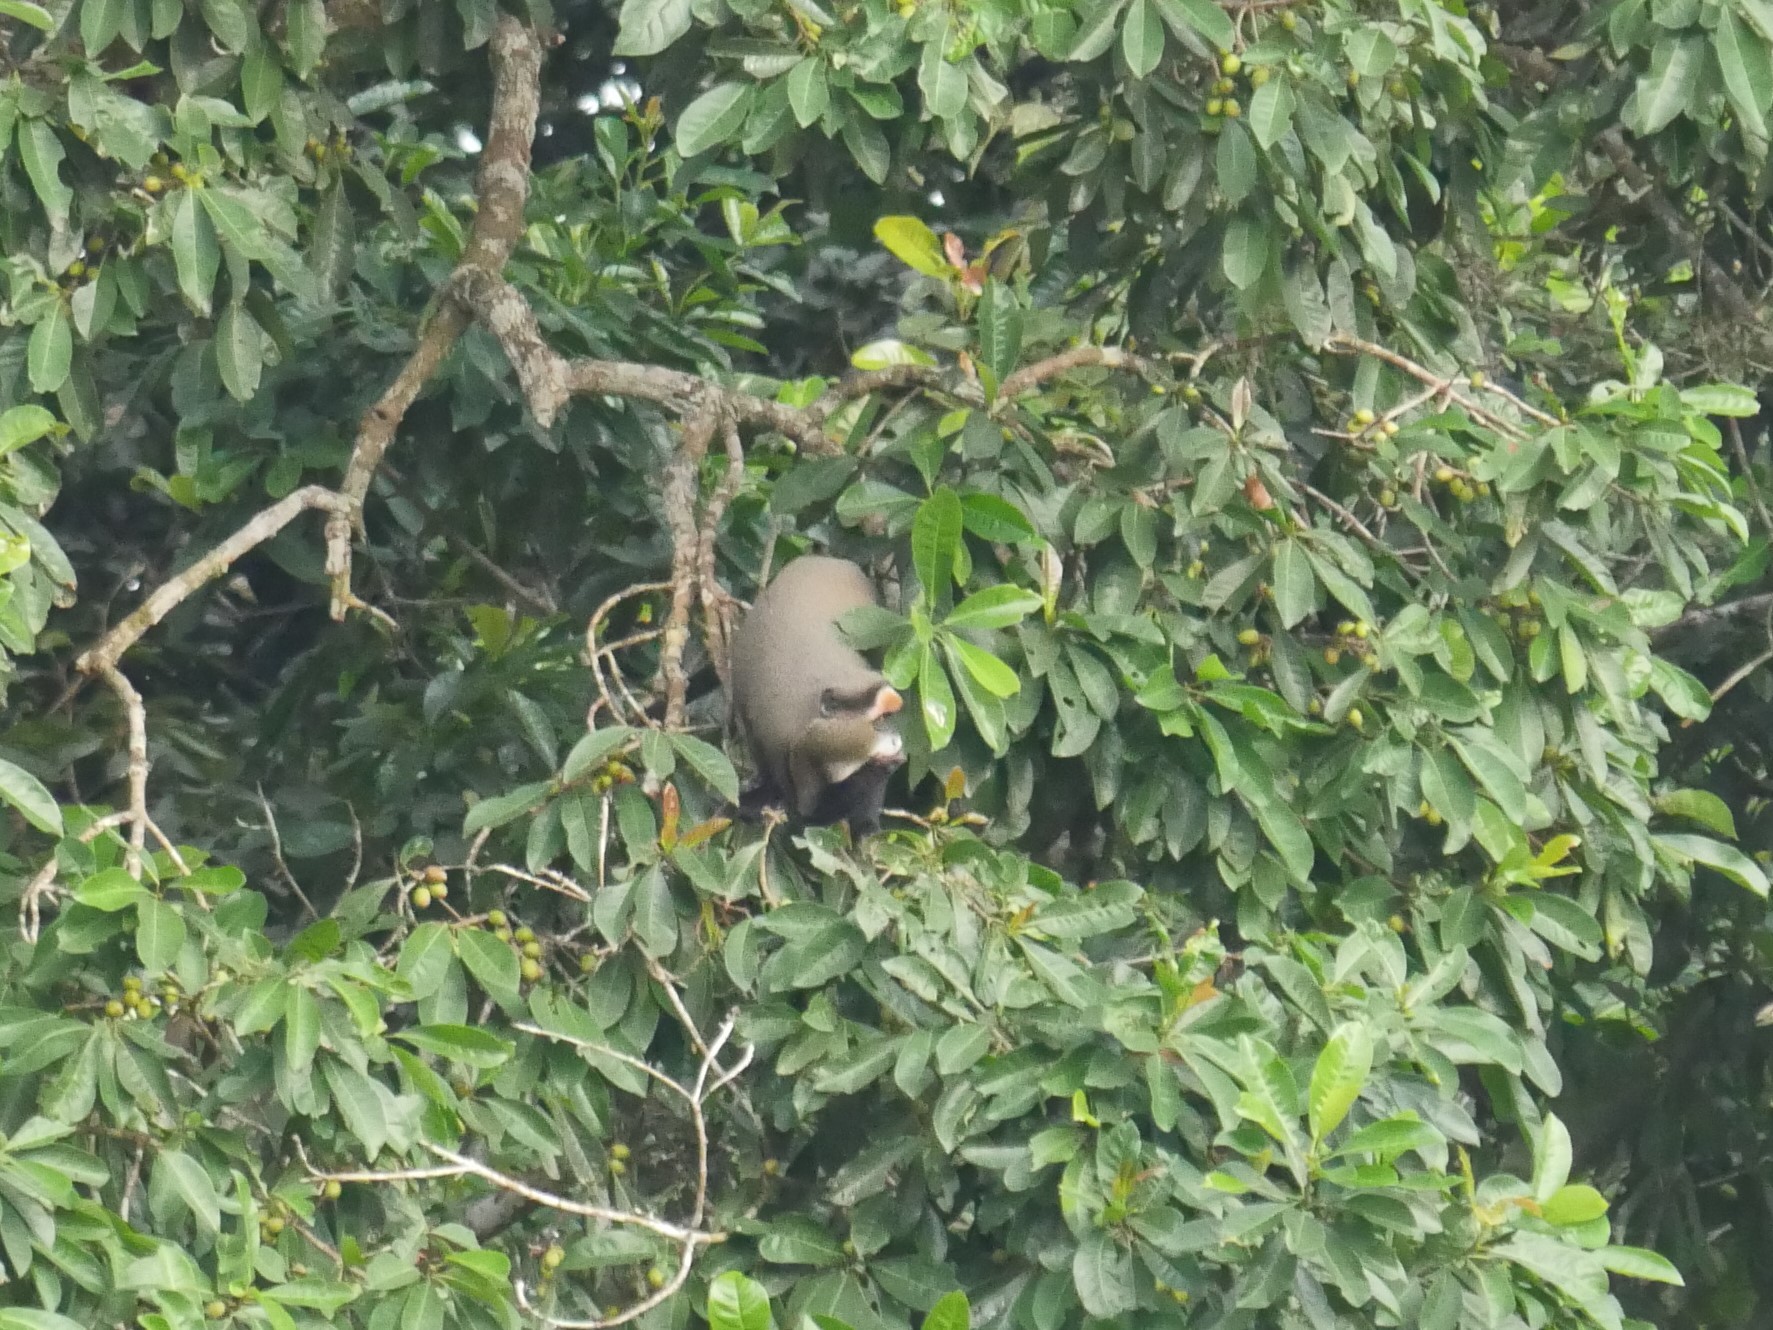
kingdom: Animalia
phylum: Chordata
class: Mammalia
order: Primates
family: Cercopithecidae
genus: Cercopithecus
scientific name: Cercopithecus neglectus
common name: De brazza's guenon
